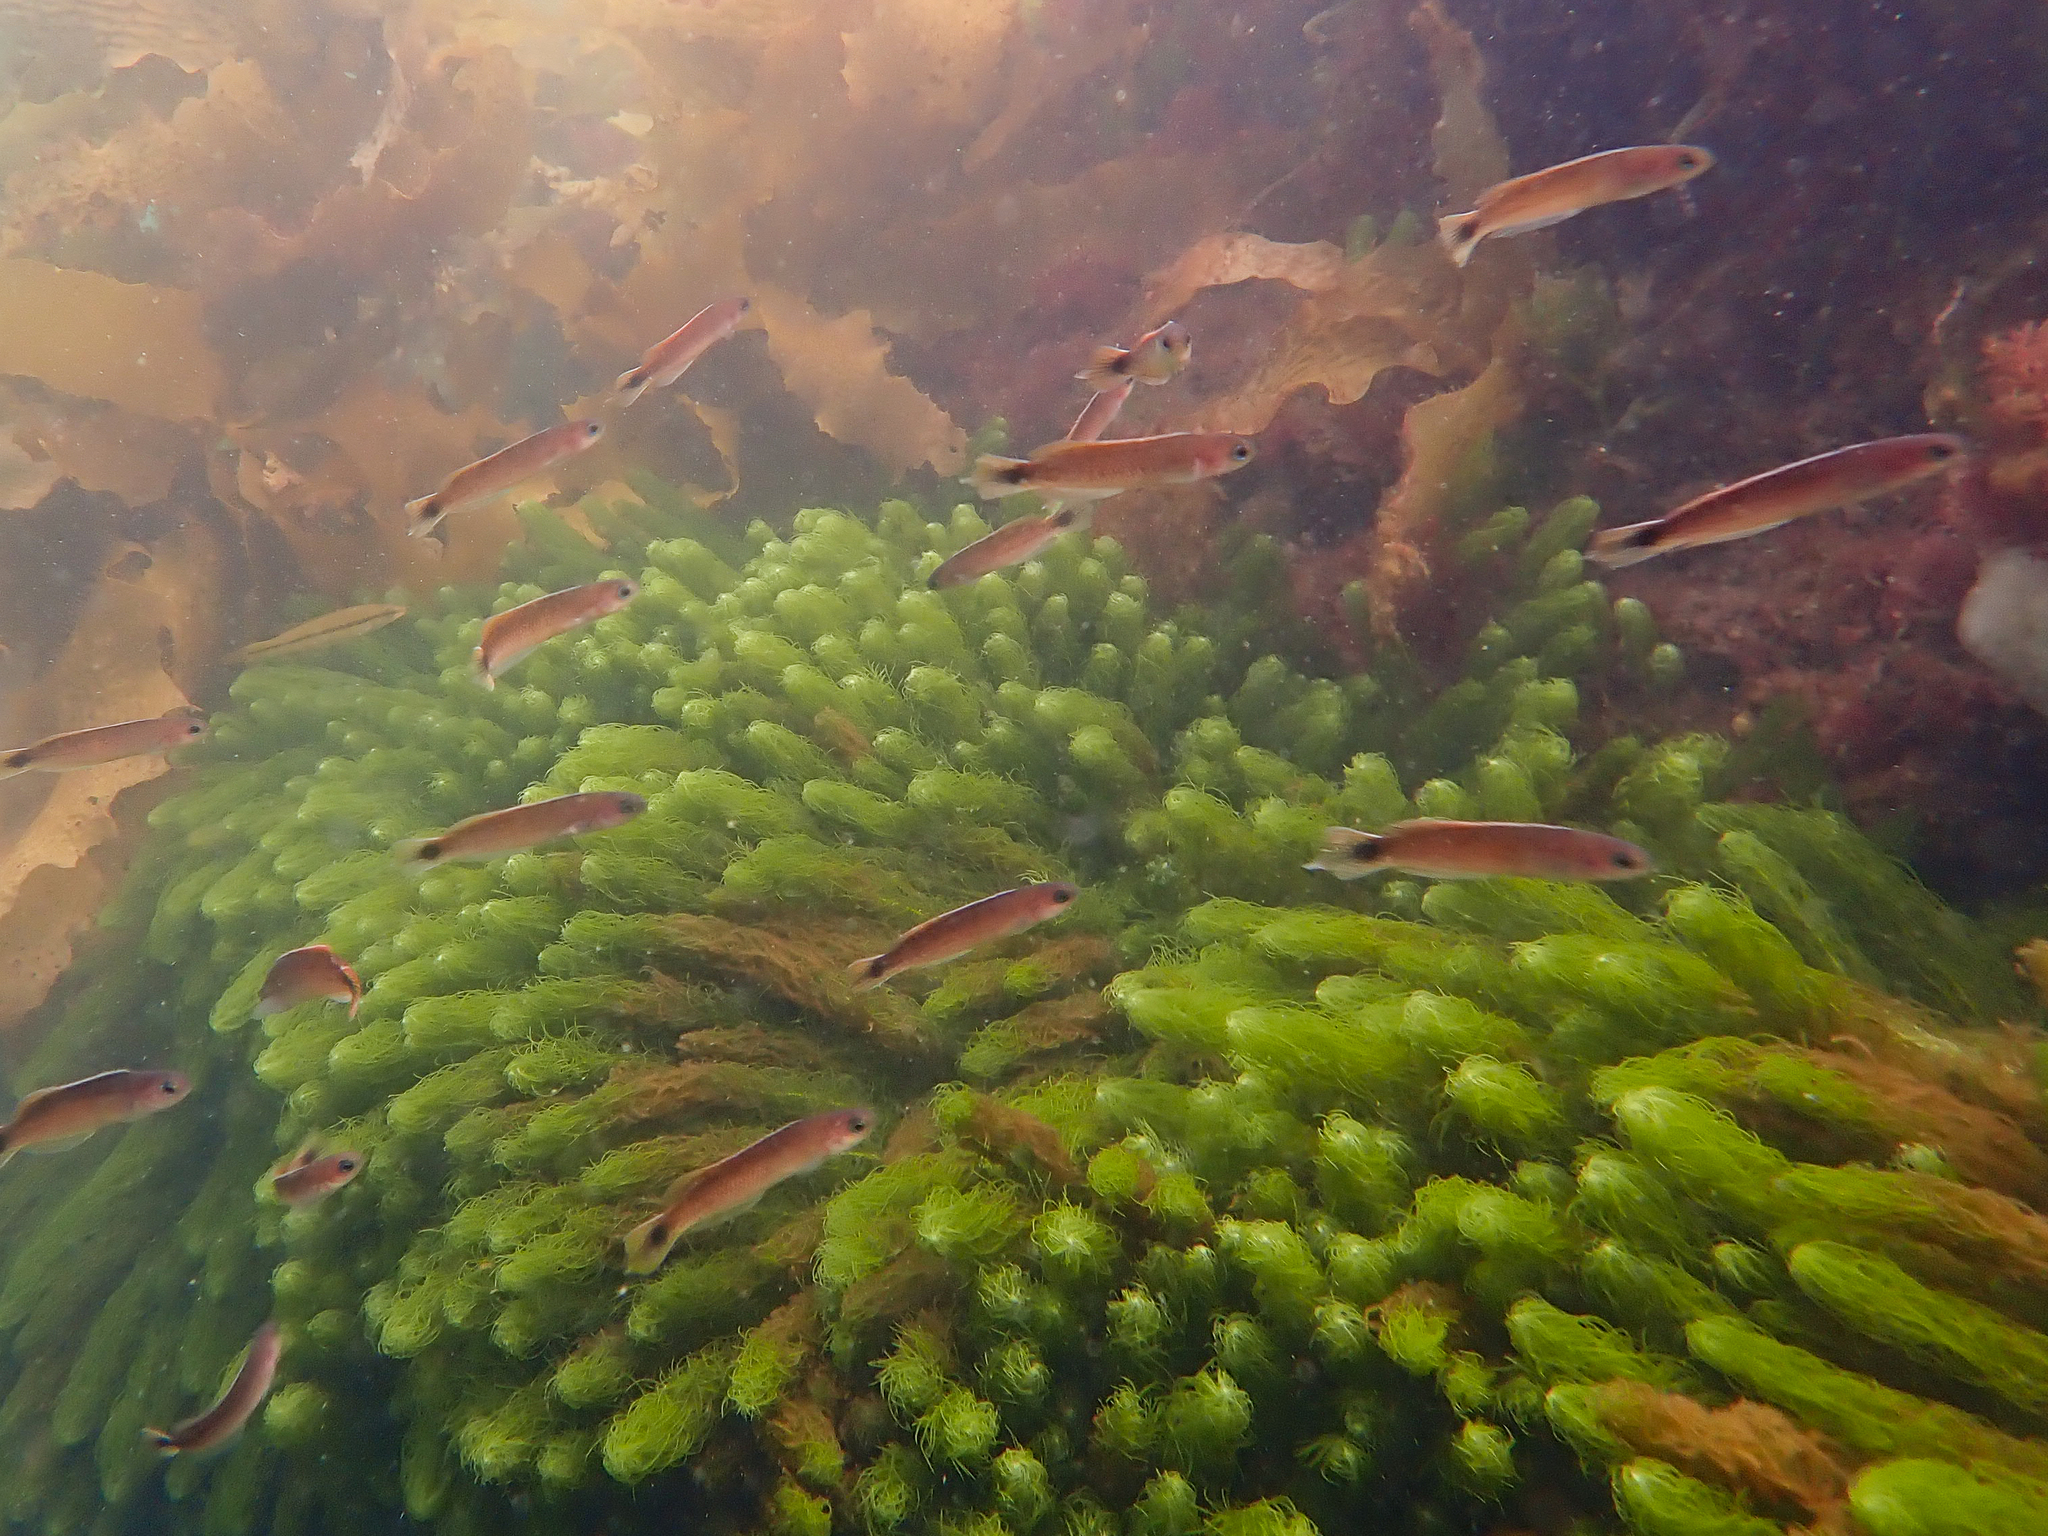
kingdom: Animalia
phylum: Chordata
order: Perciformes
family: Plesiopidae
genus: Trachinops
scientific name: Trachinops caudimaculatus
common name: Blotched-tailed trachinops
